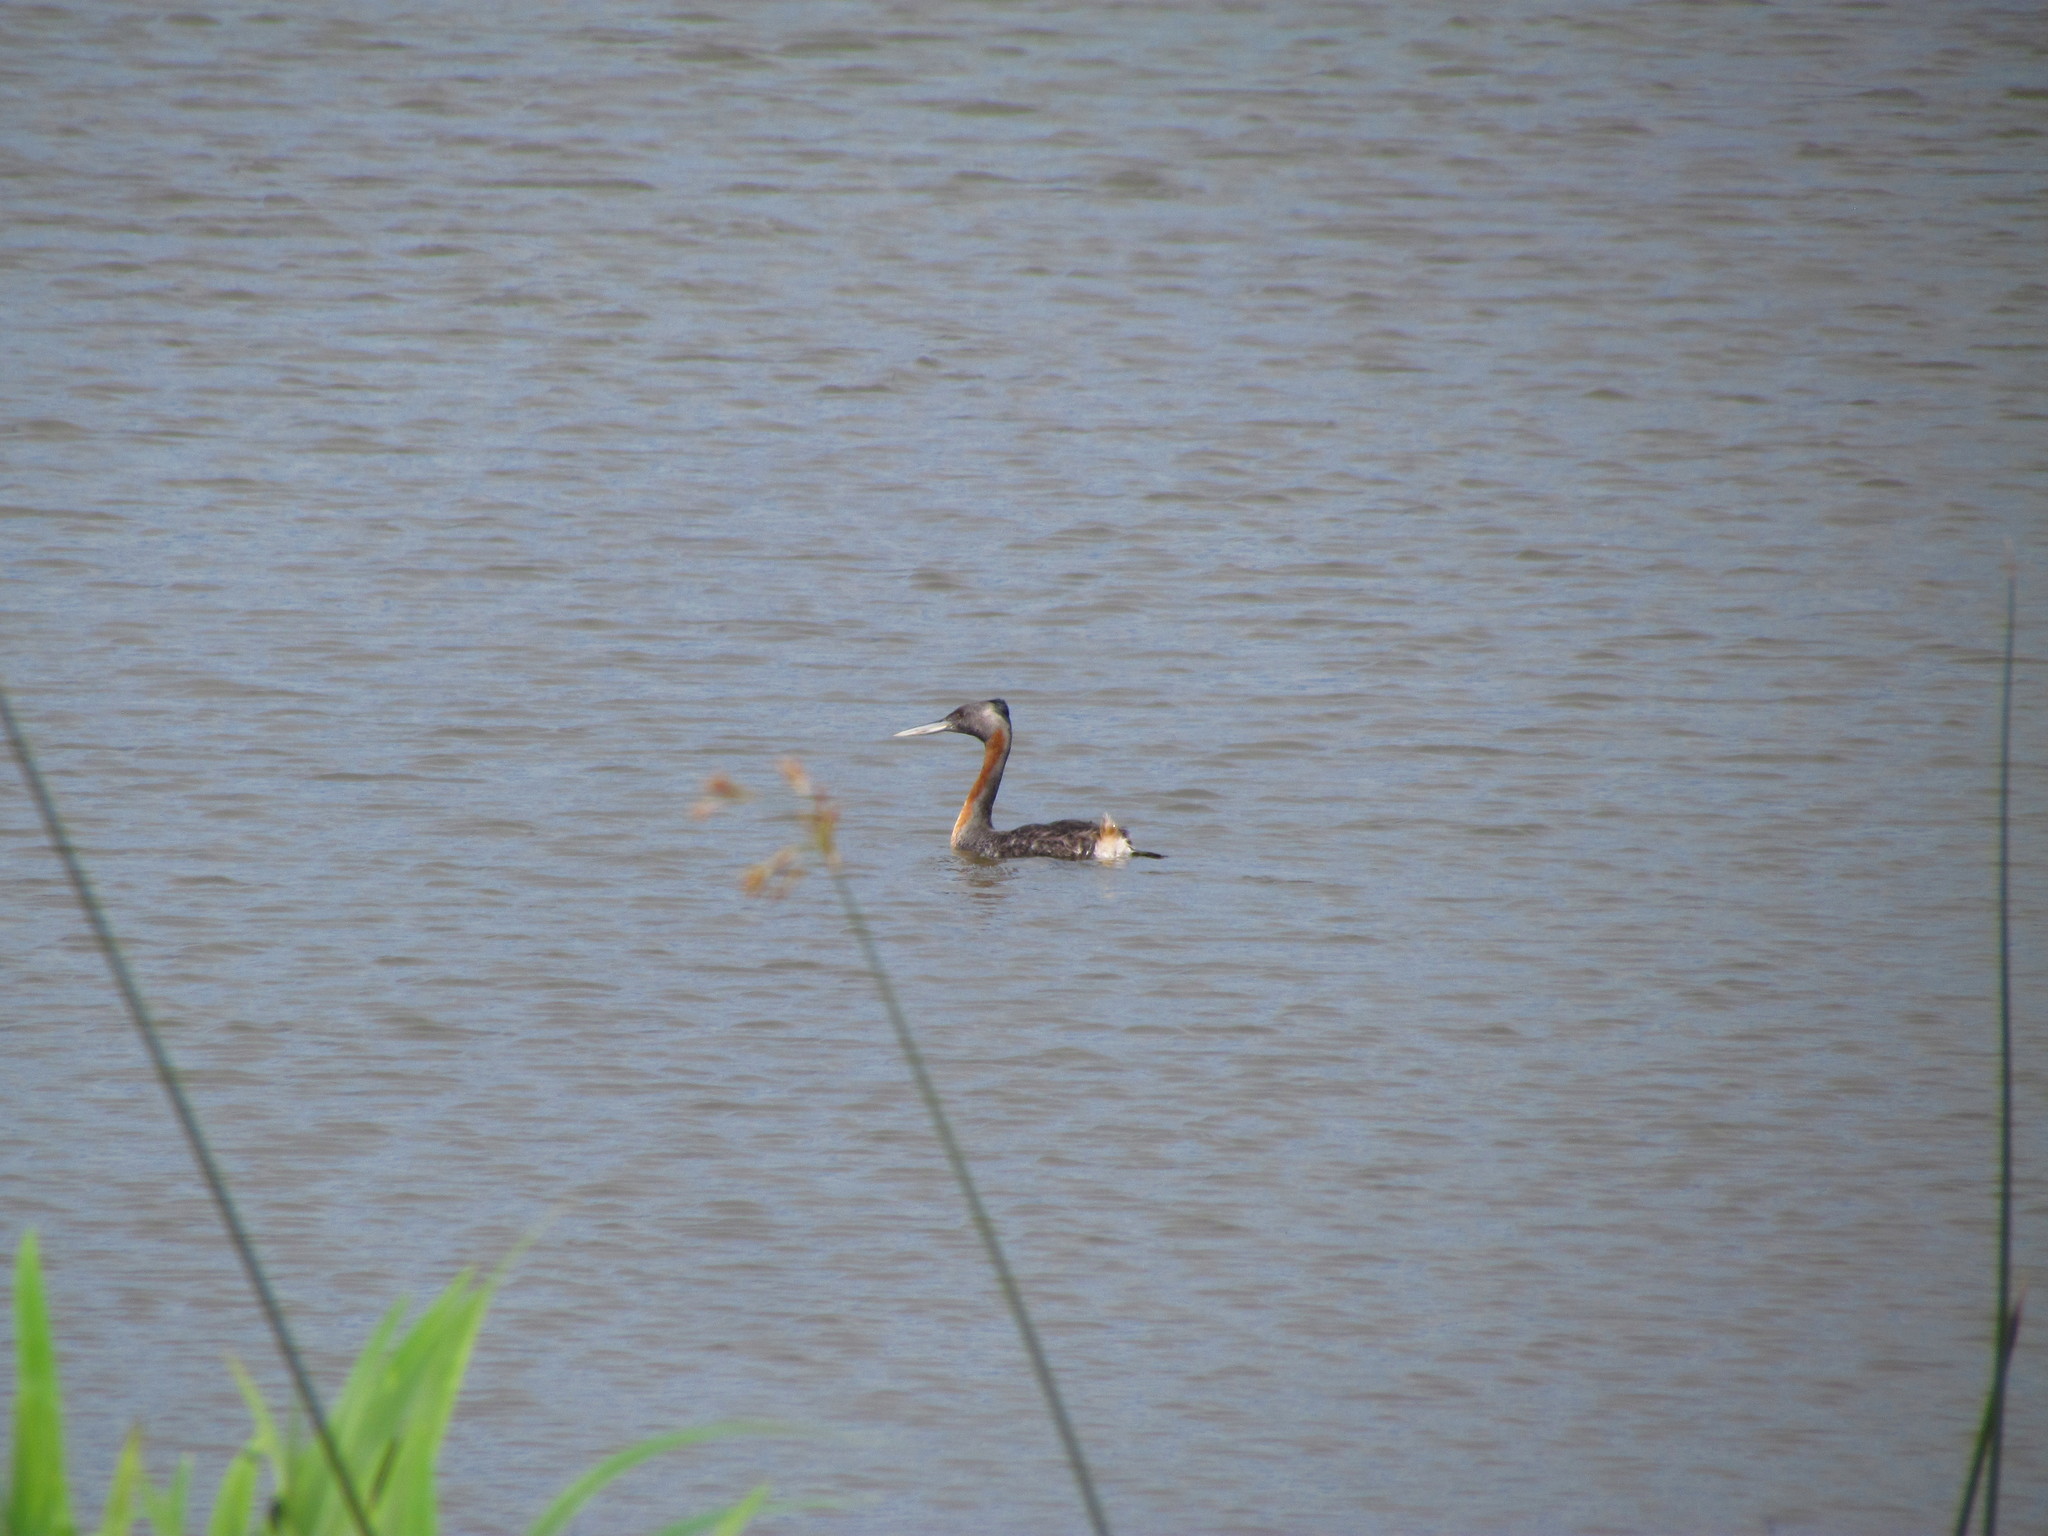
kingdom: Animalia
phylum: Chordata
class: Aves
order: Podicipediformes
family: Podicipedidae
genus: Podiceps
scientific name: Podiceps major
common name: Great grebe
